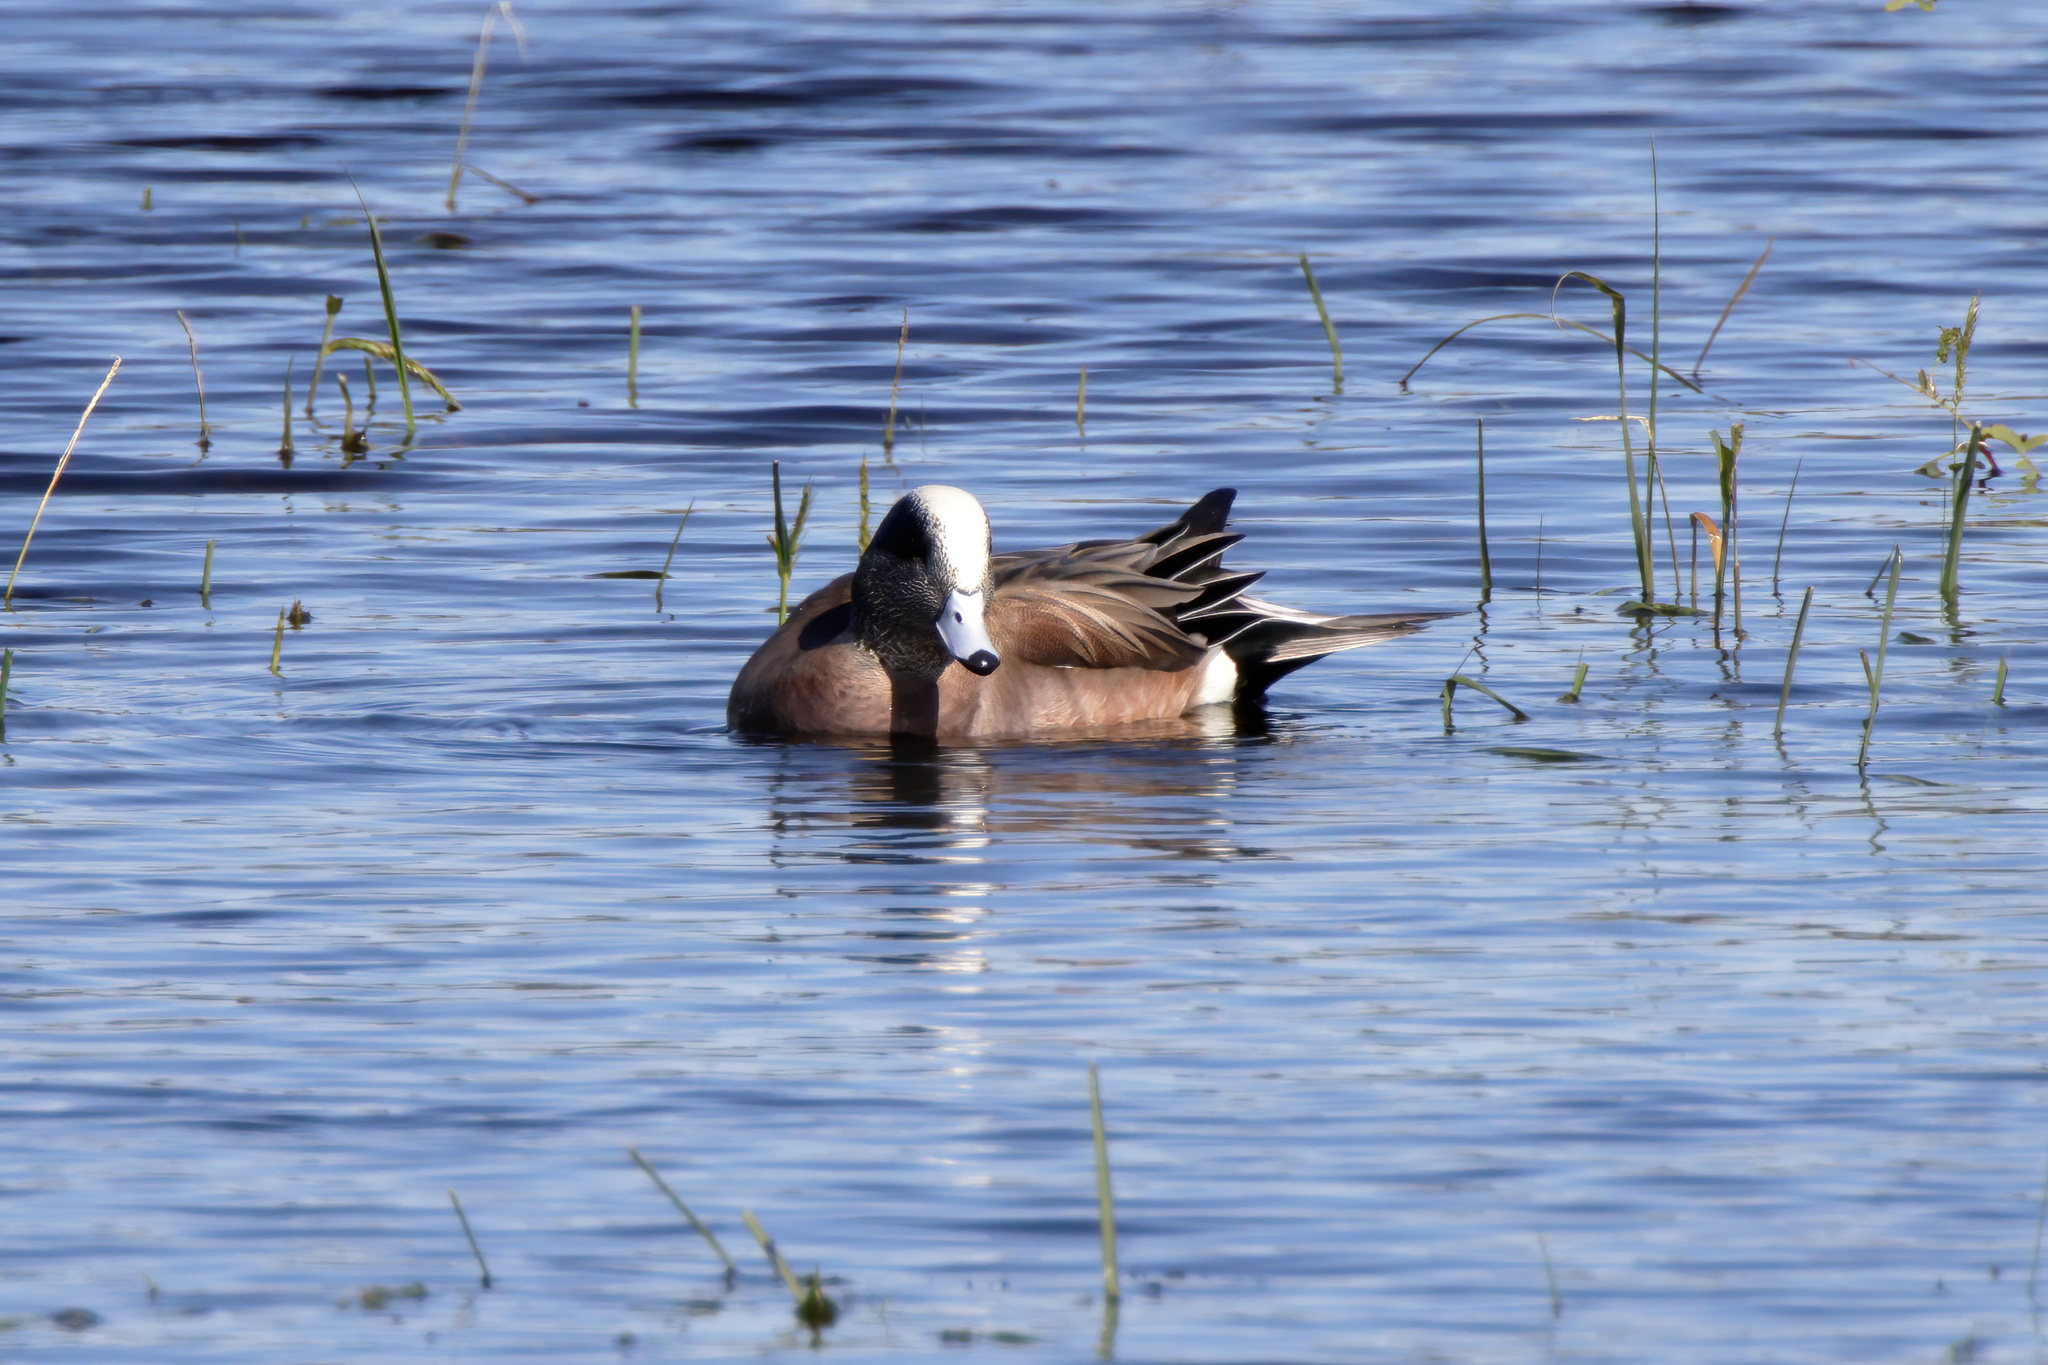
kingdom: Animalia
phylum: Chordata
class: Aves
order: Anseriformes
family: Anatidae
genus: Mareca
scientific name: Mareca americana
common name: American wigeon
